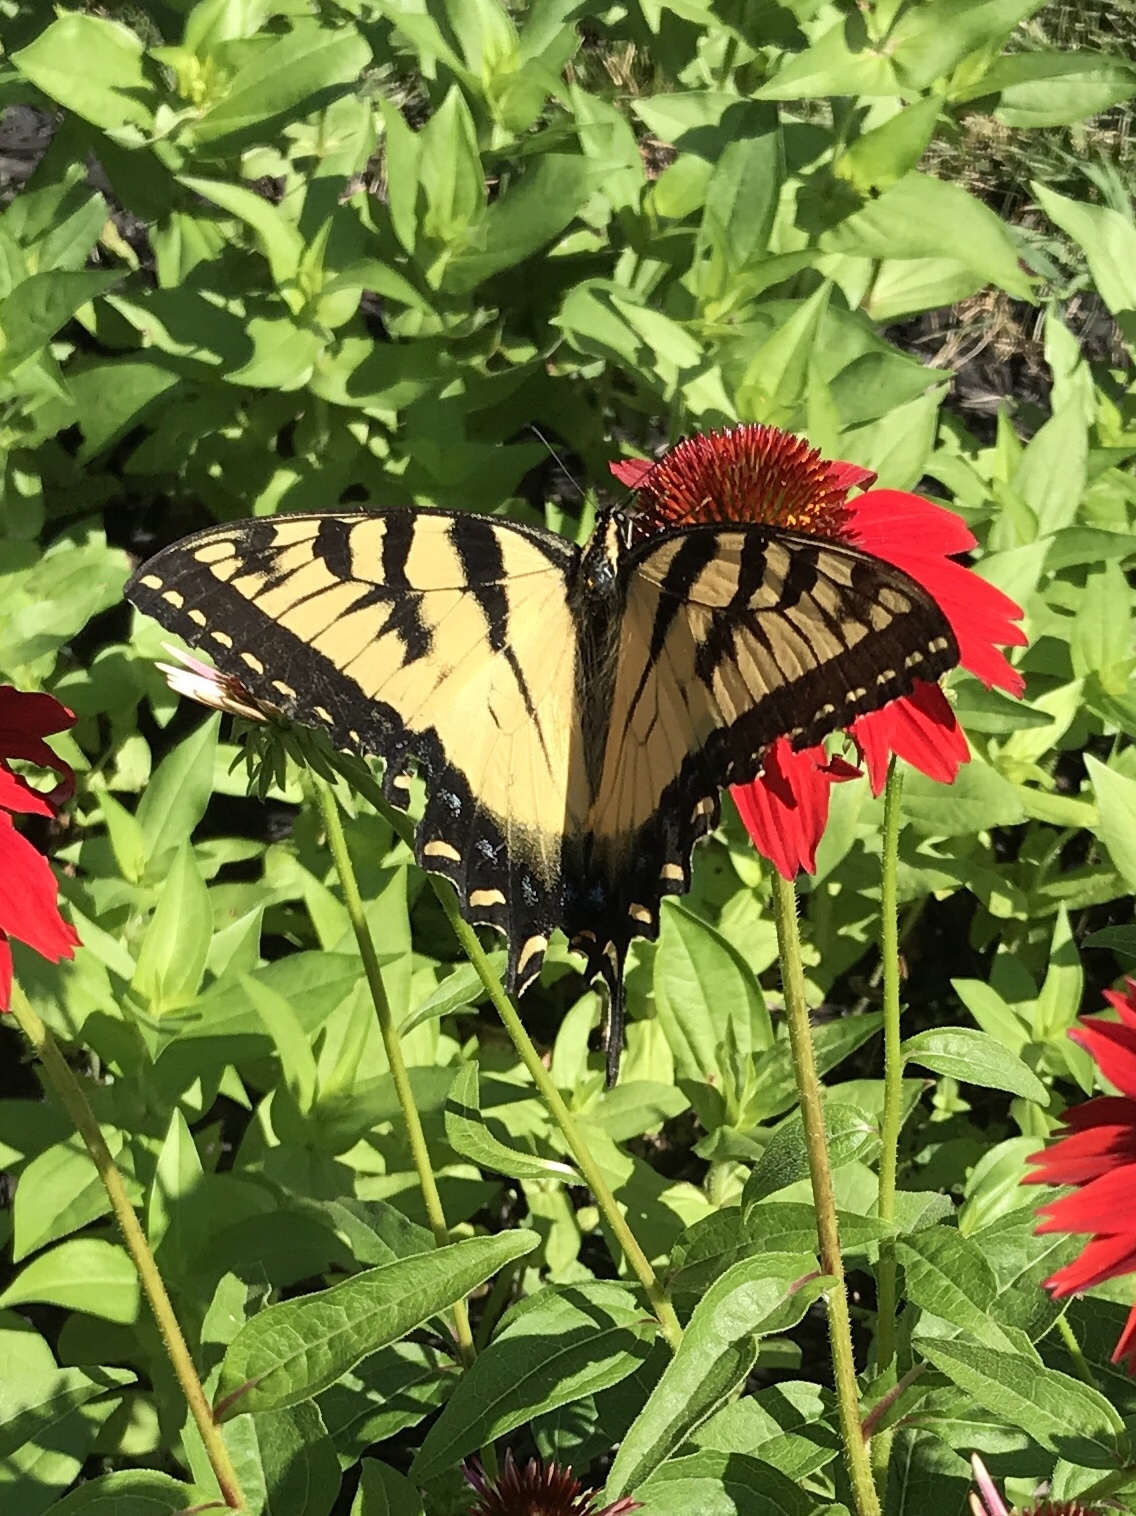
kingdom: Animalia
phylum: Arthropoda
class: Insecta
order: Lepidoptera
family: Papilionidae
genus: Papilio
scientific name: Papilio glaucus
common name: Tiger swallowtail
